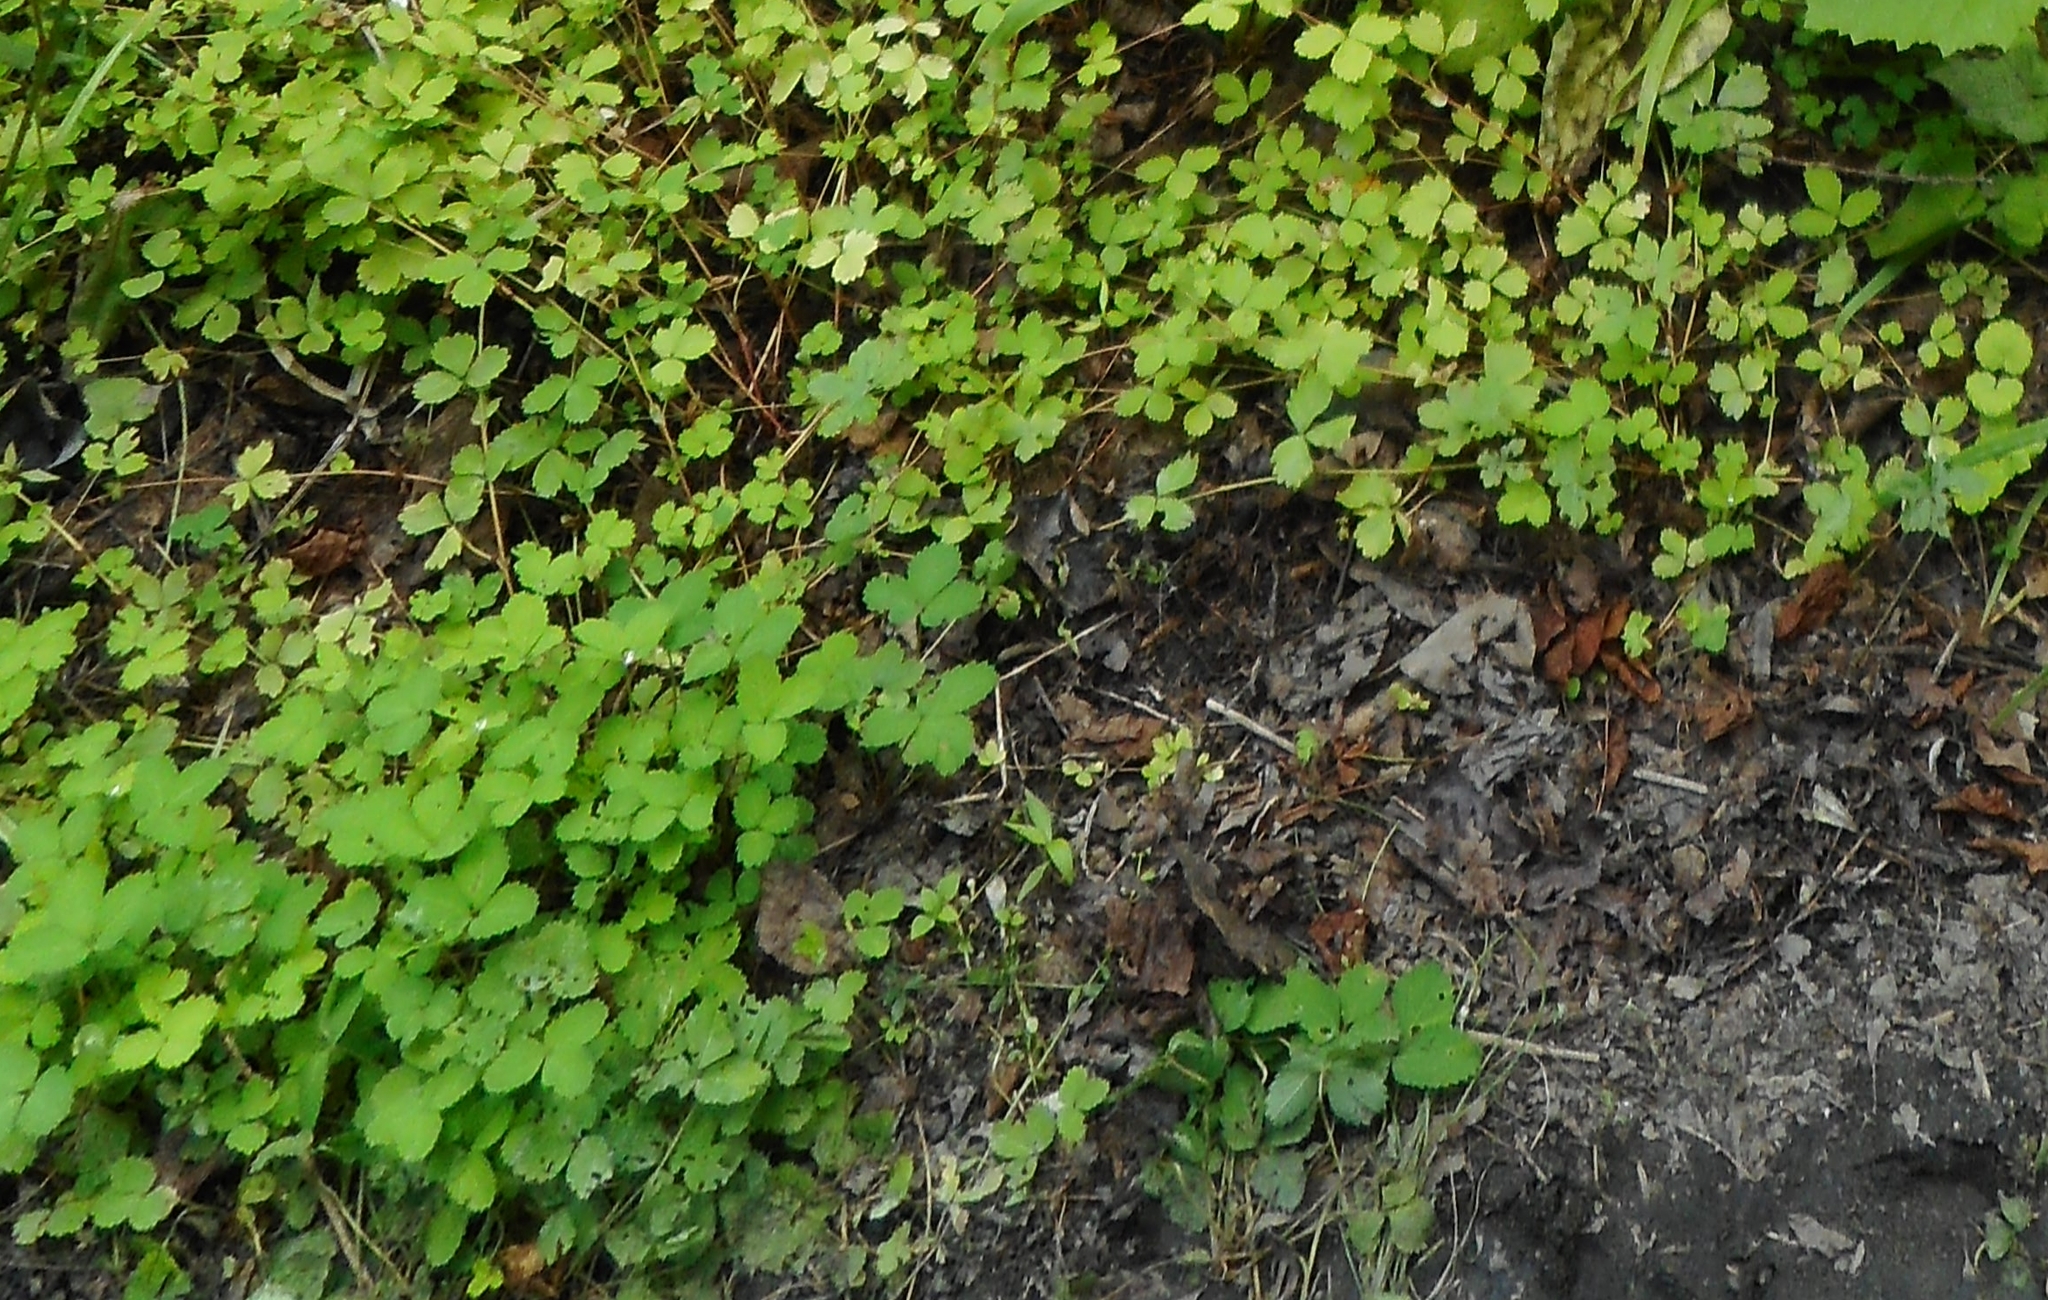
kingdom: Plantae
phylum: Tracheophyta
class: Magnoliopsida
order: Rosales
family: Rosaceae
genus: Potentilla
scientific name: Potentilla centigrana
